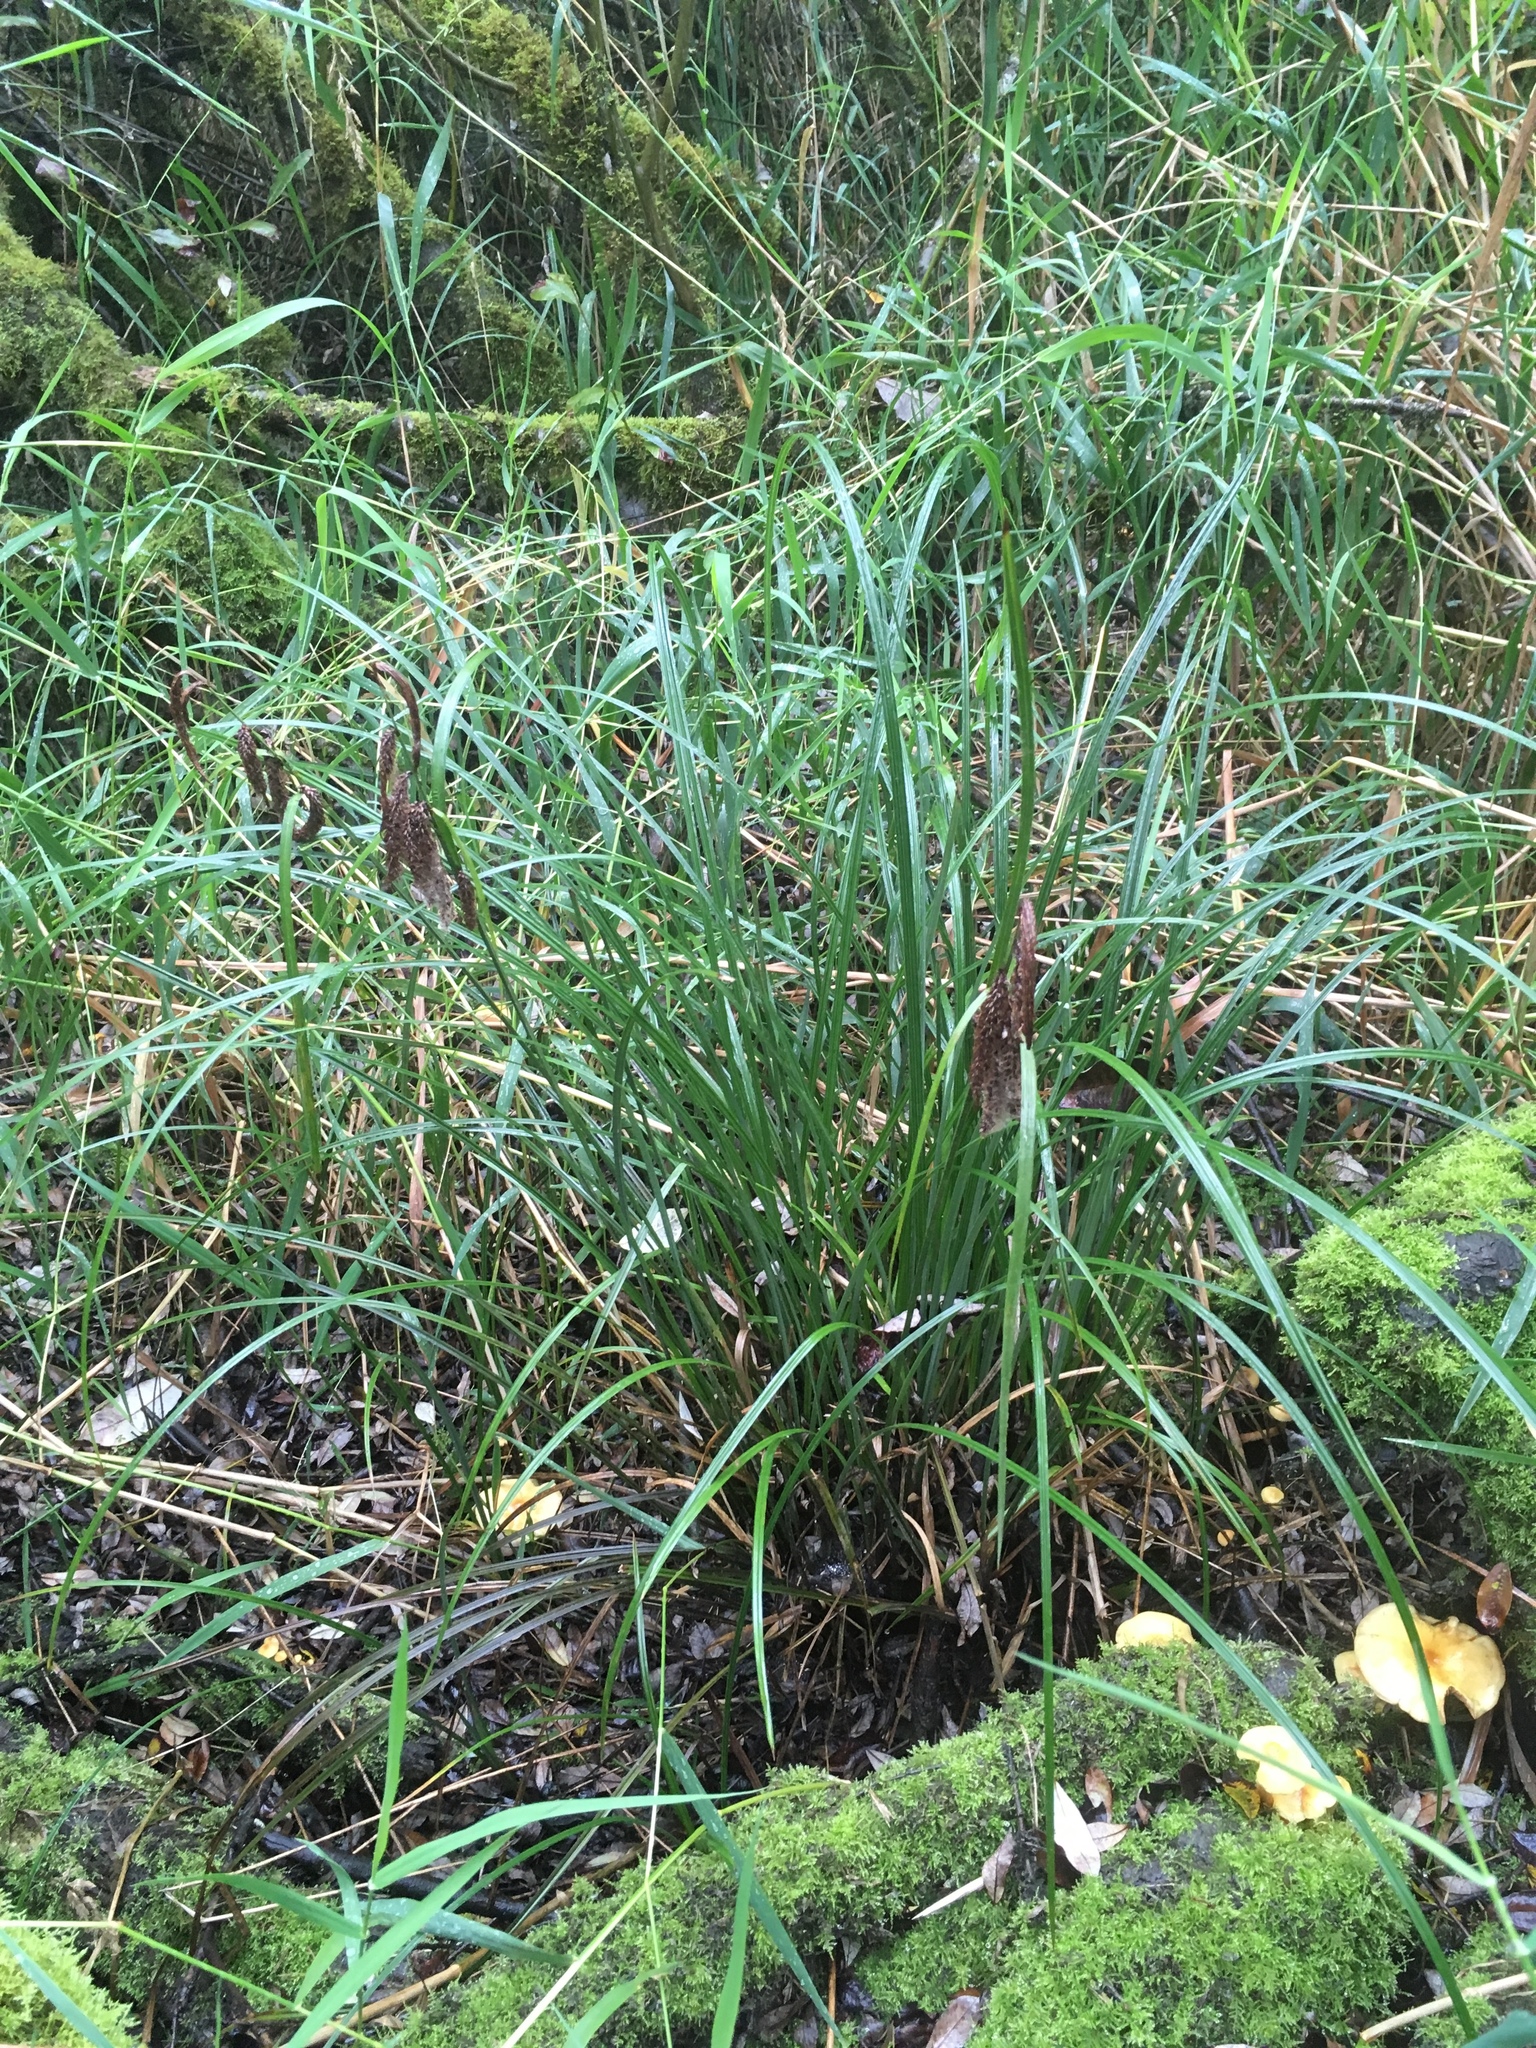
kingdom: Plantae
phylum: Tracheophyta
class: Liliopsida
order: Poales
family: Cyperaceae
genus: Carex
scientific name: Carex obnupta
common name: Slough sedge
